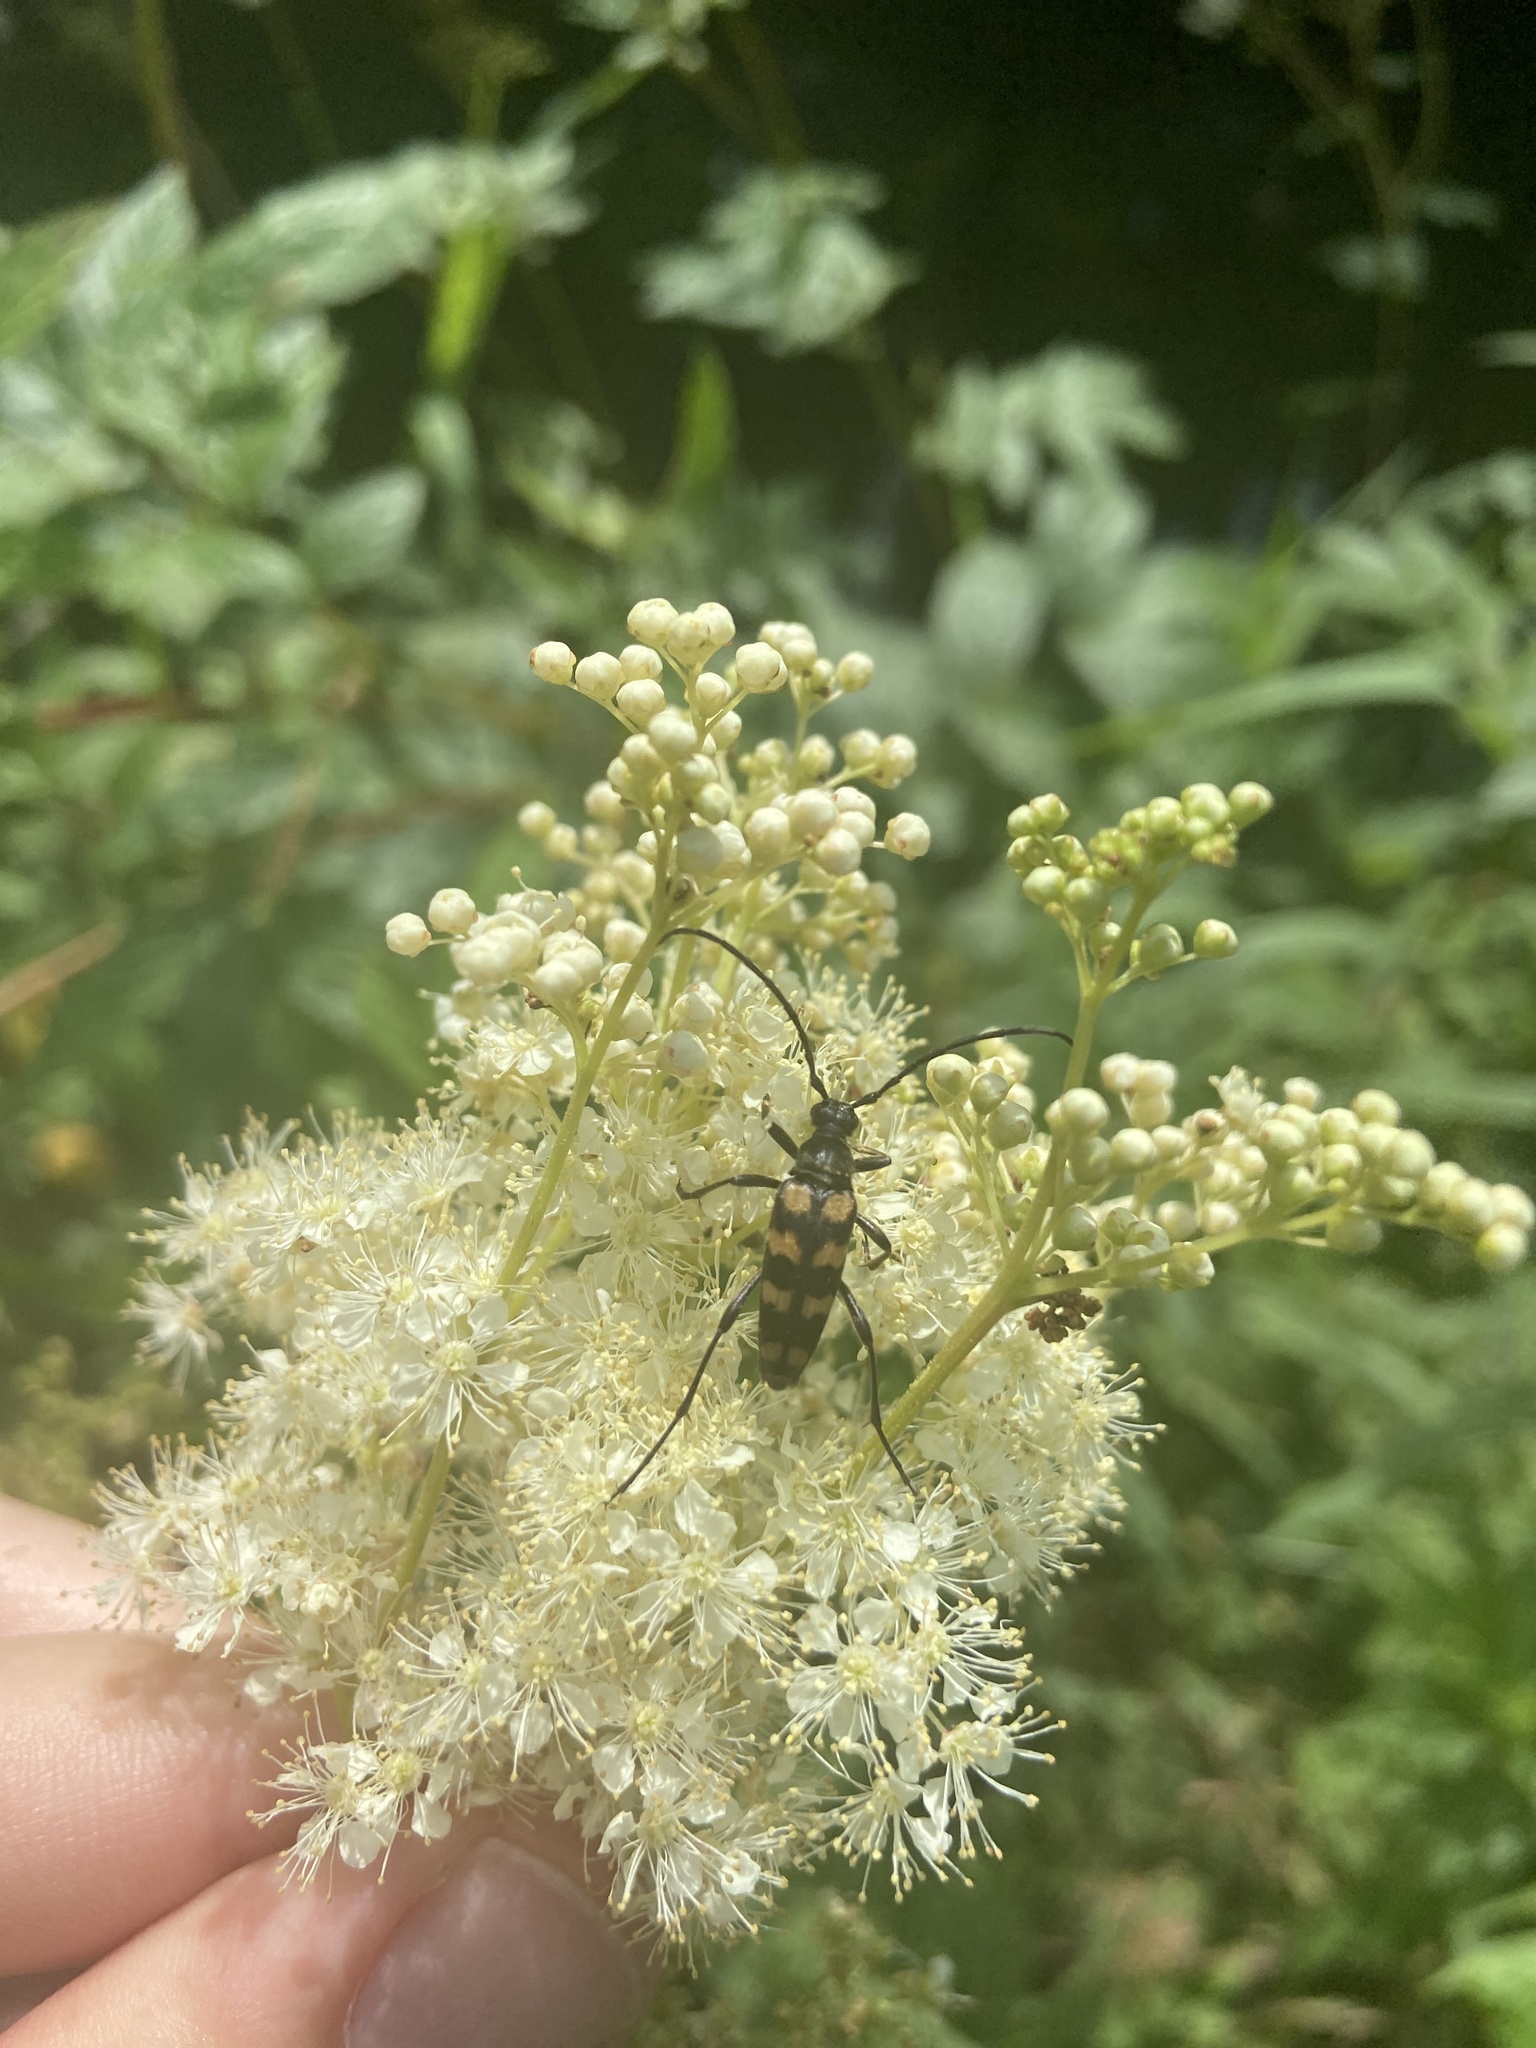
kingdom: Animalia
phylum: Arthropoda
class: Insecta
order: Coleoptera
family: Cerambycidae
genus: Leptura
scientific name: Leptura quadrifasciata
